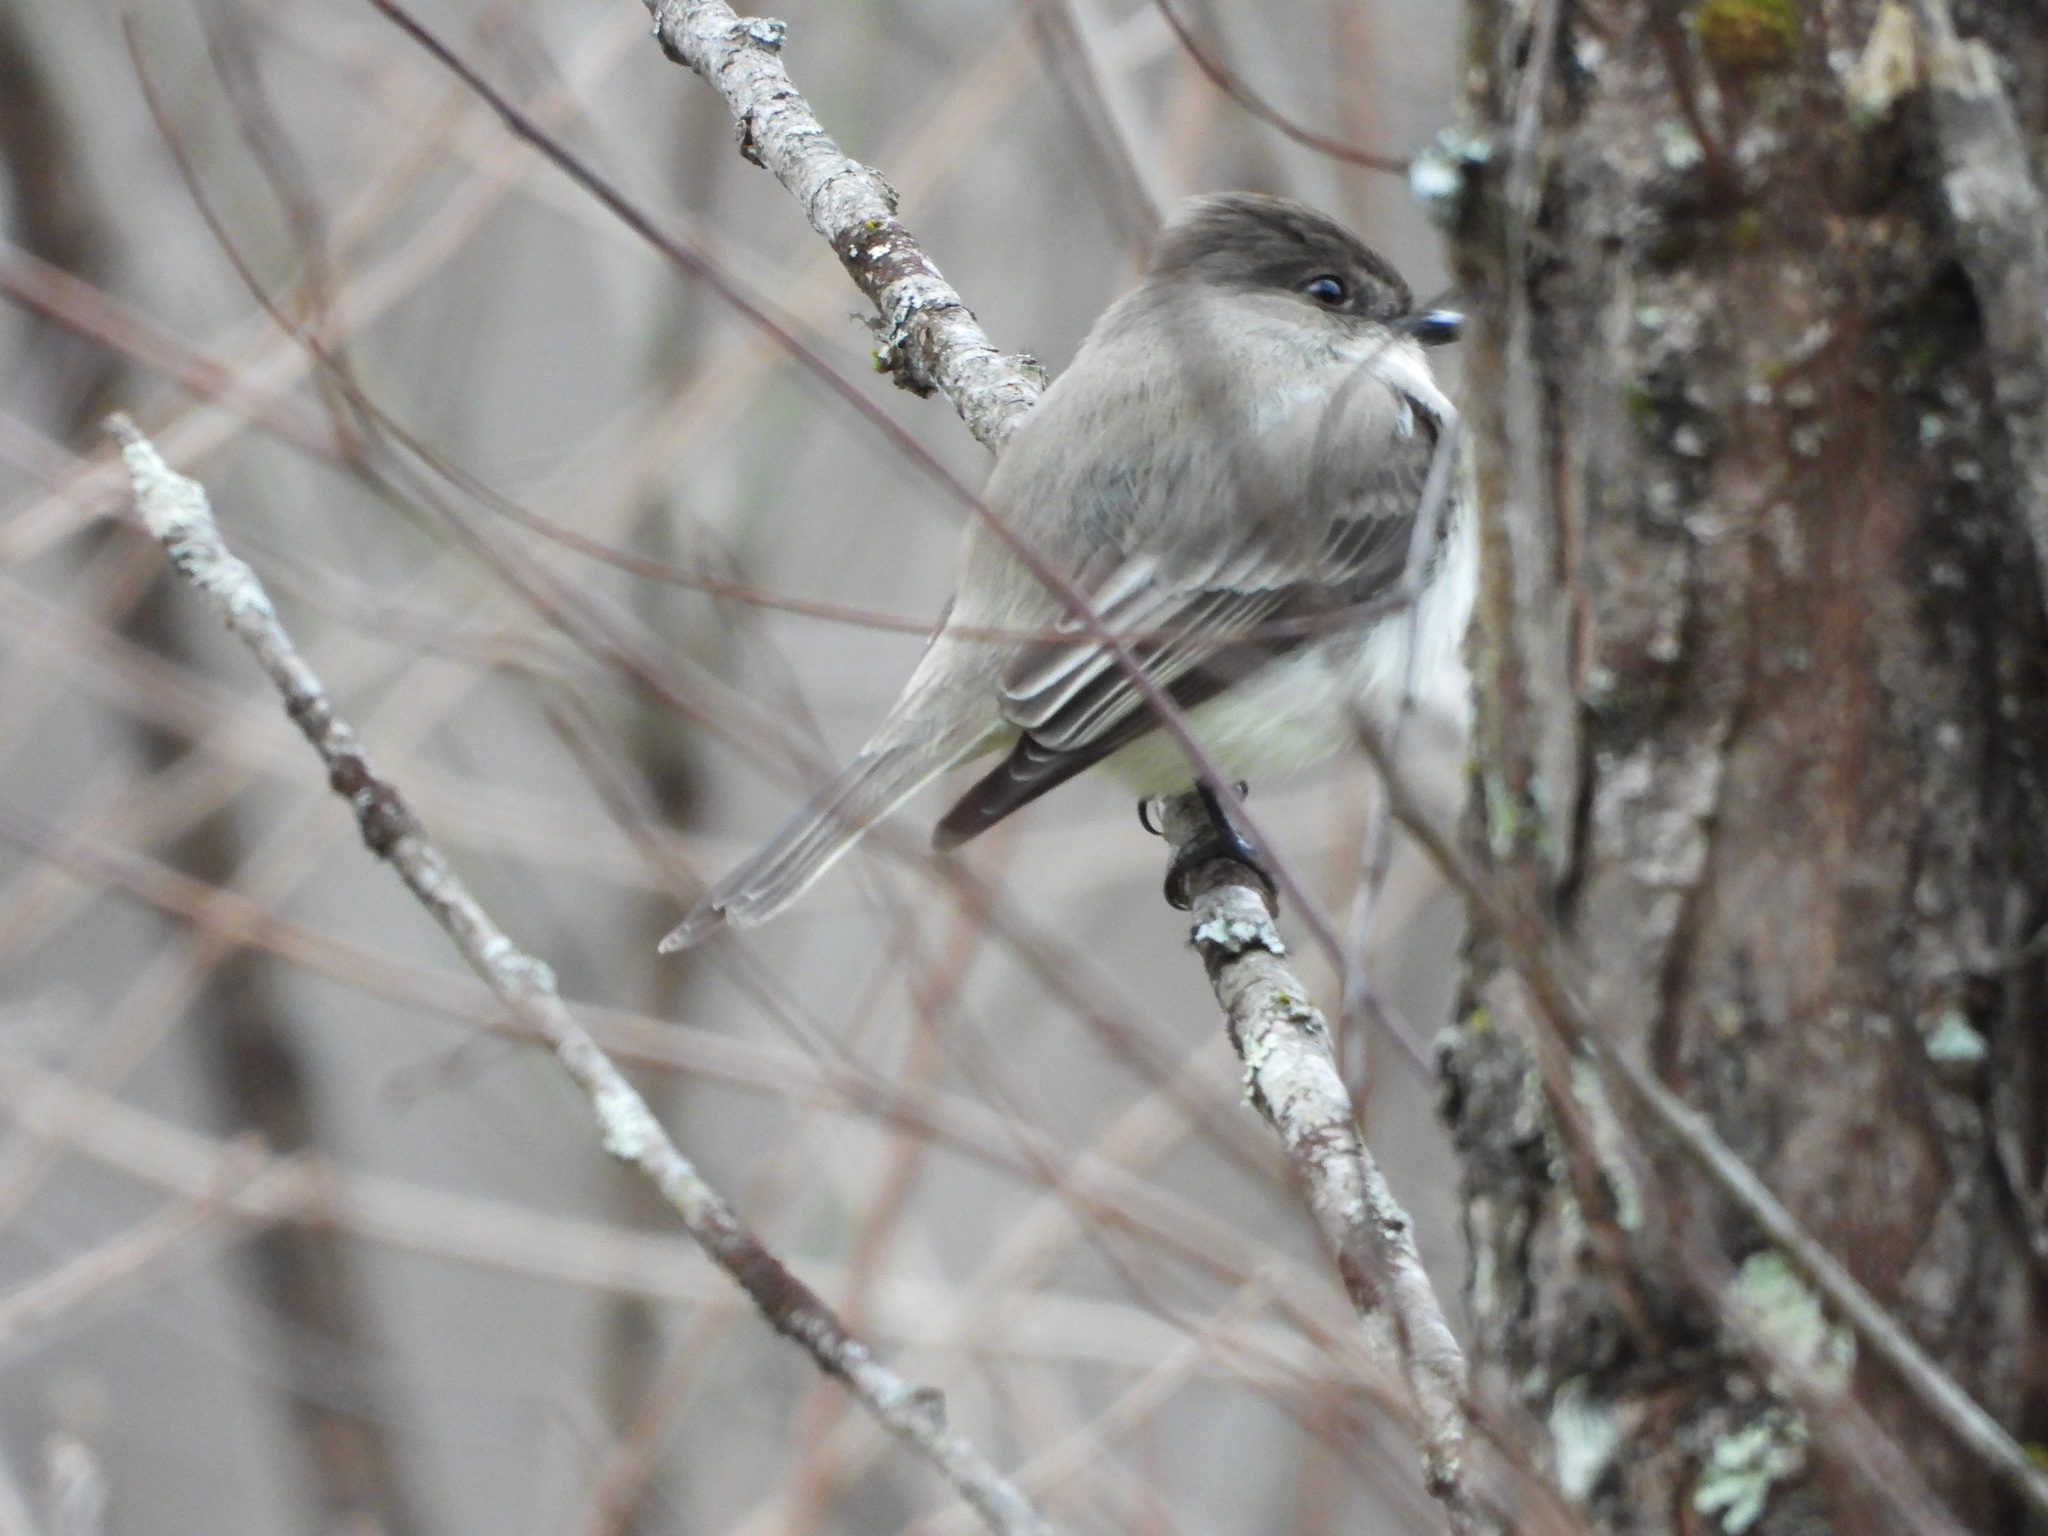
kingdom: Animalia
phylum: Chordata
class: Aves
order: Passeriformes
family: Tyrannidae
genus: Sayornis
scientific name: Sayornis phoebe
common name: Eastern phoebe
